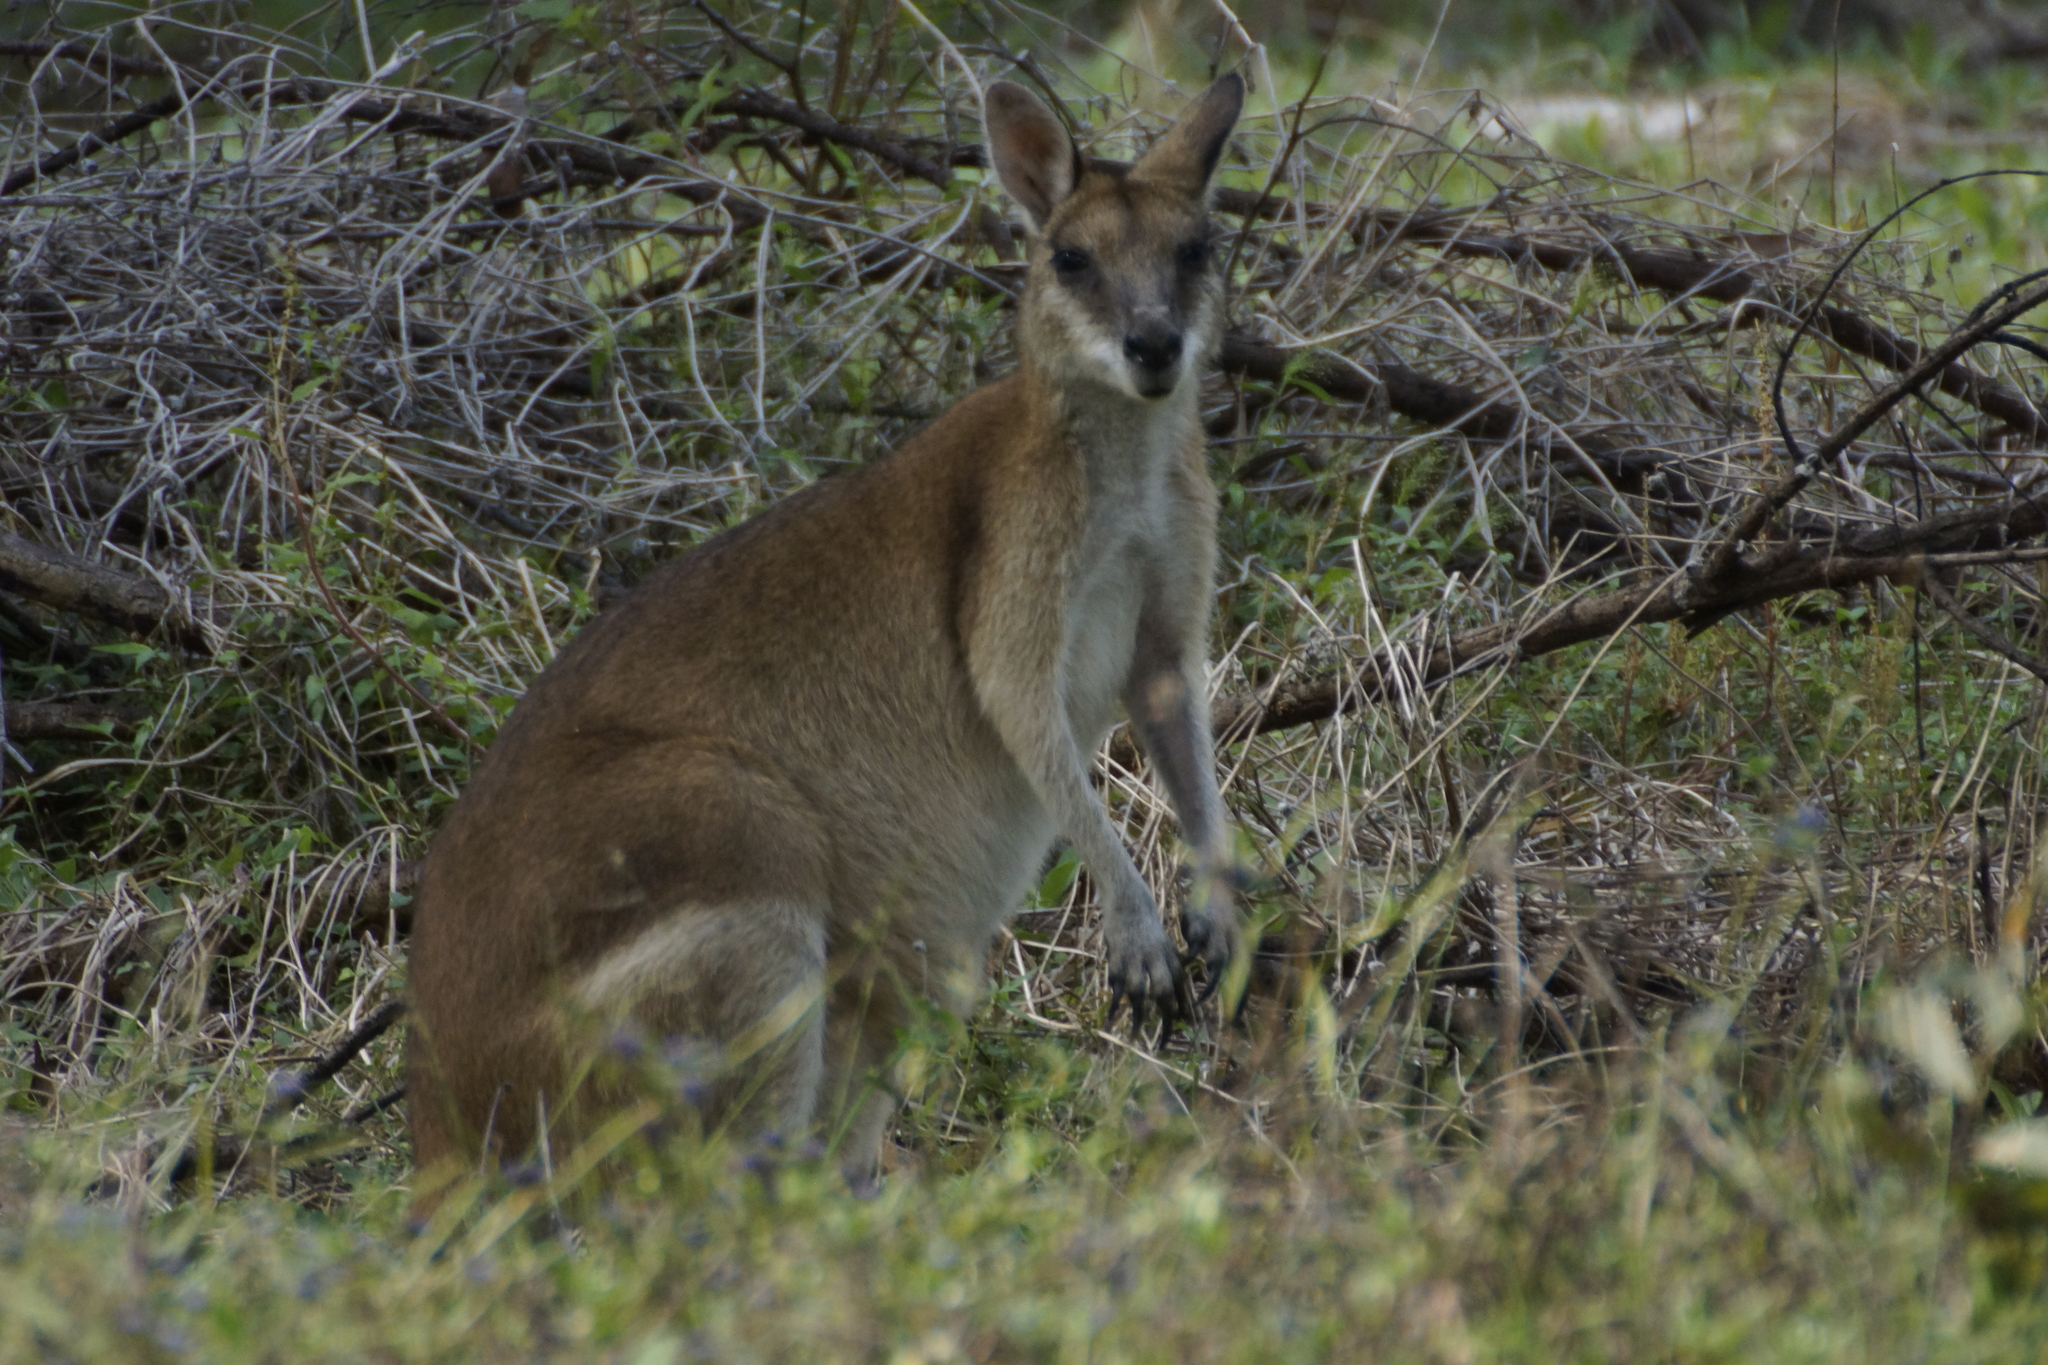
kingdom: Animalia
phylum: Chordata
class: Mammalia
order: Diprotodontia
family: Macropodidae
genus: Macropus
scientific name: Macropus agilis
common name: Agile wallaby
